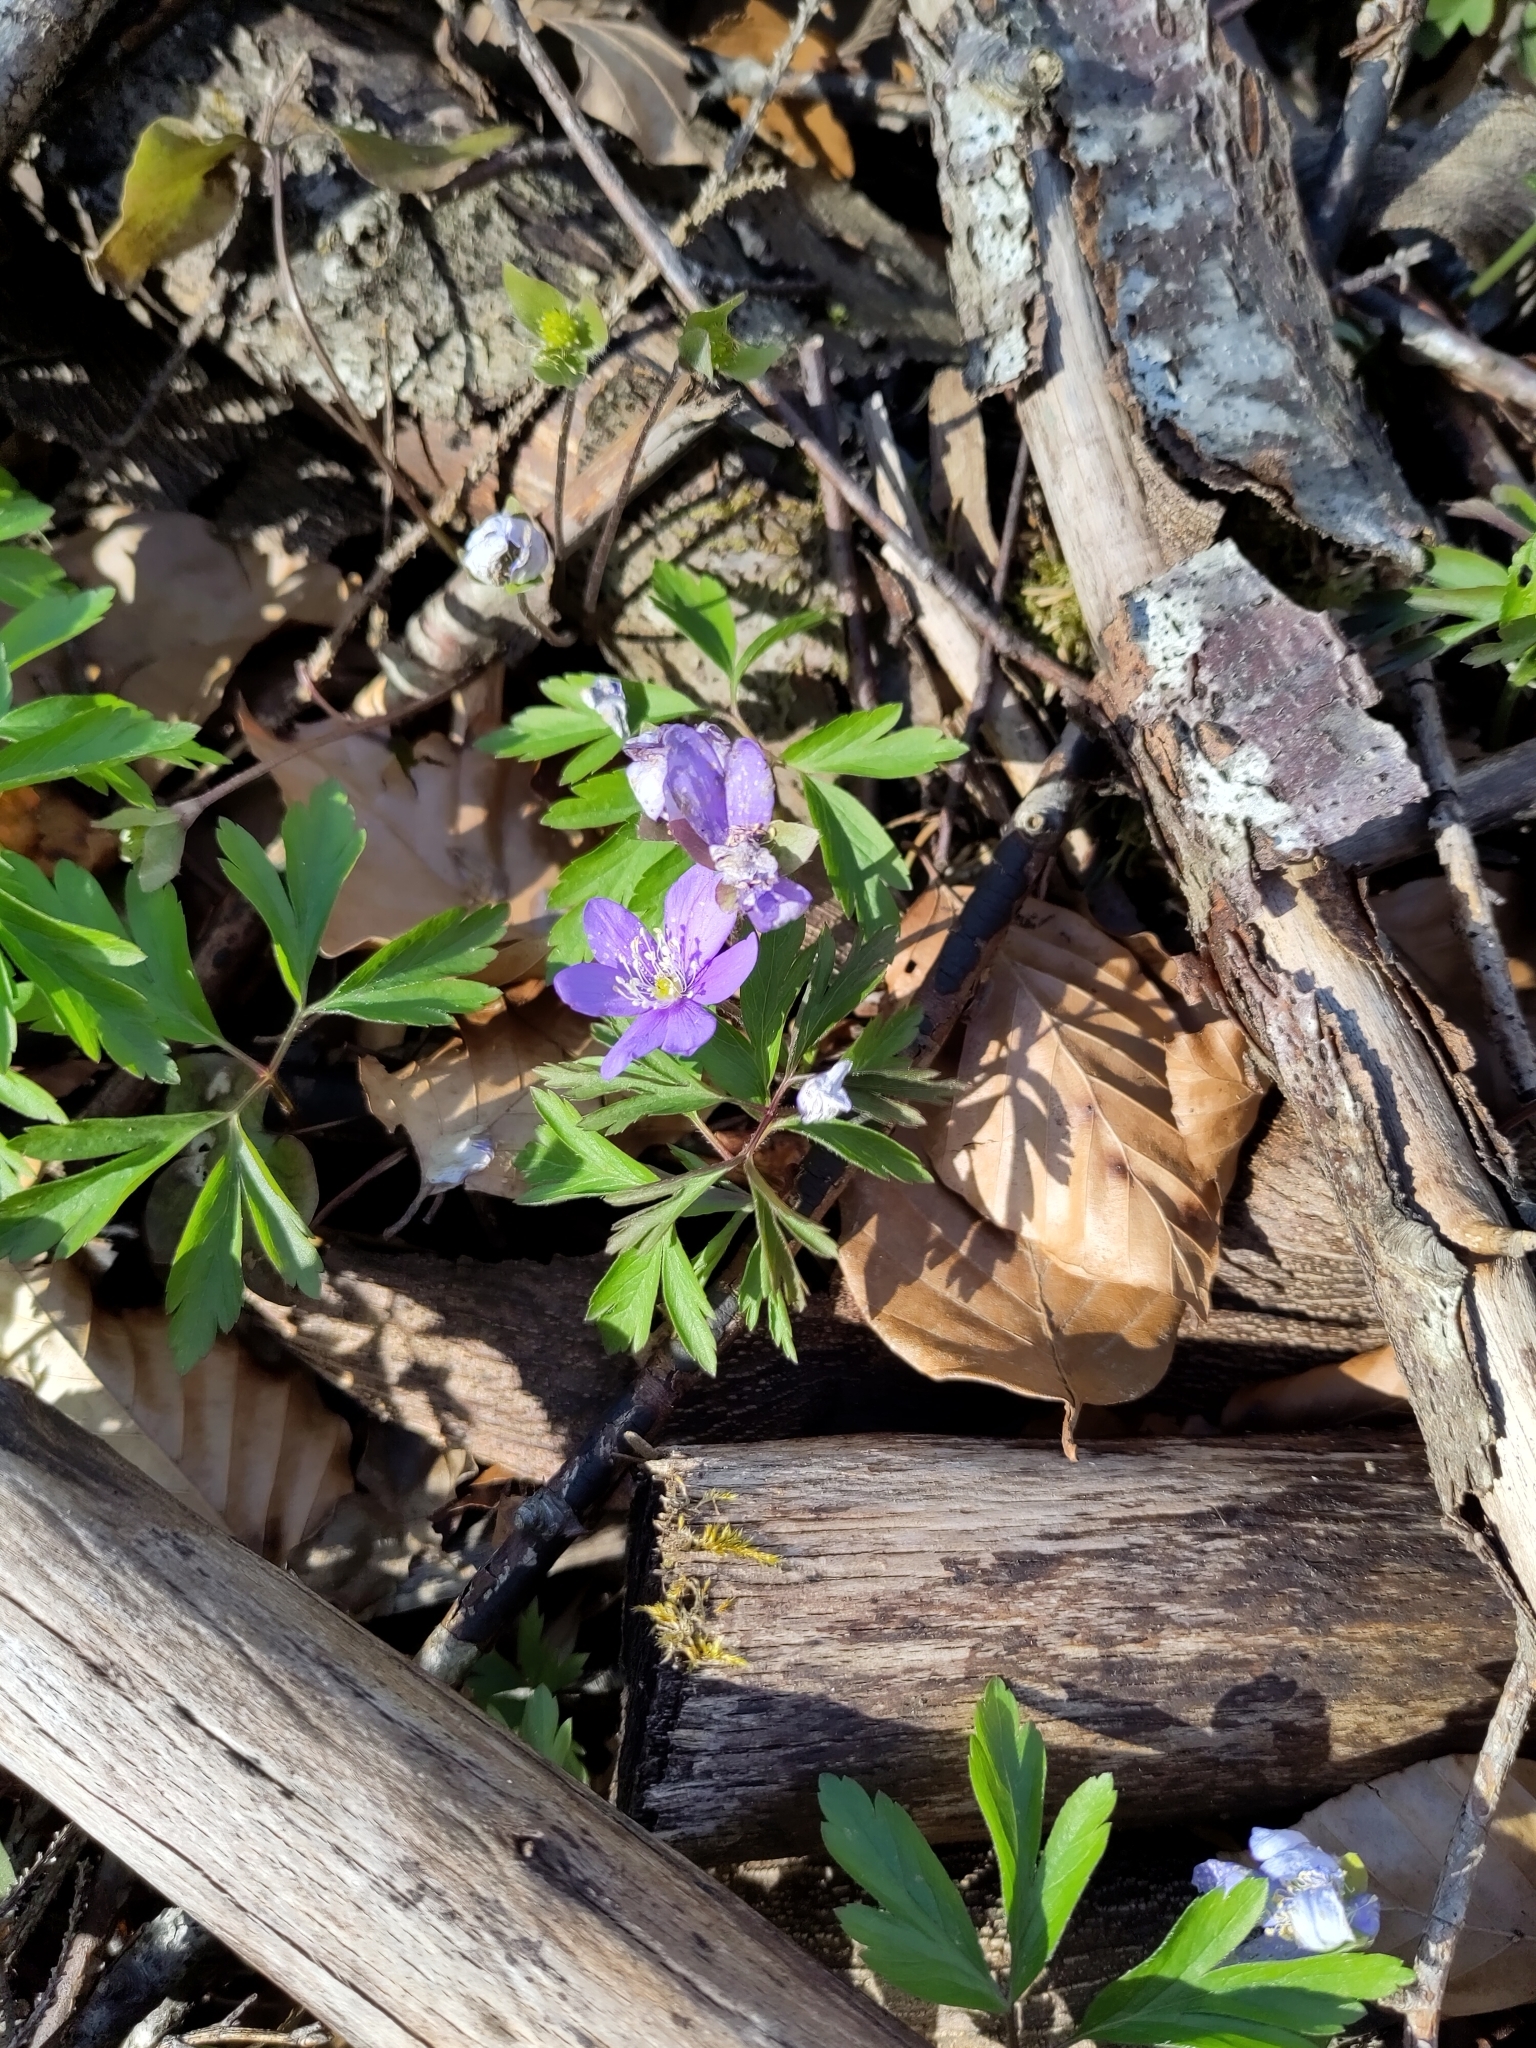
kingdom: Plantae
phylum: Tracheophyta
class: Magnoliopsida
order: Ranunculales
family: Ranunculaceae
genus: Anemone
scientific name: Anemone nemorosa
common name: Wood anemone
